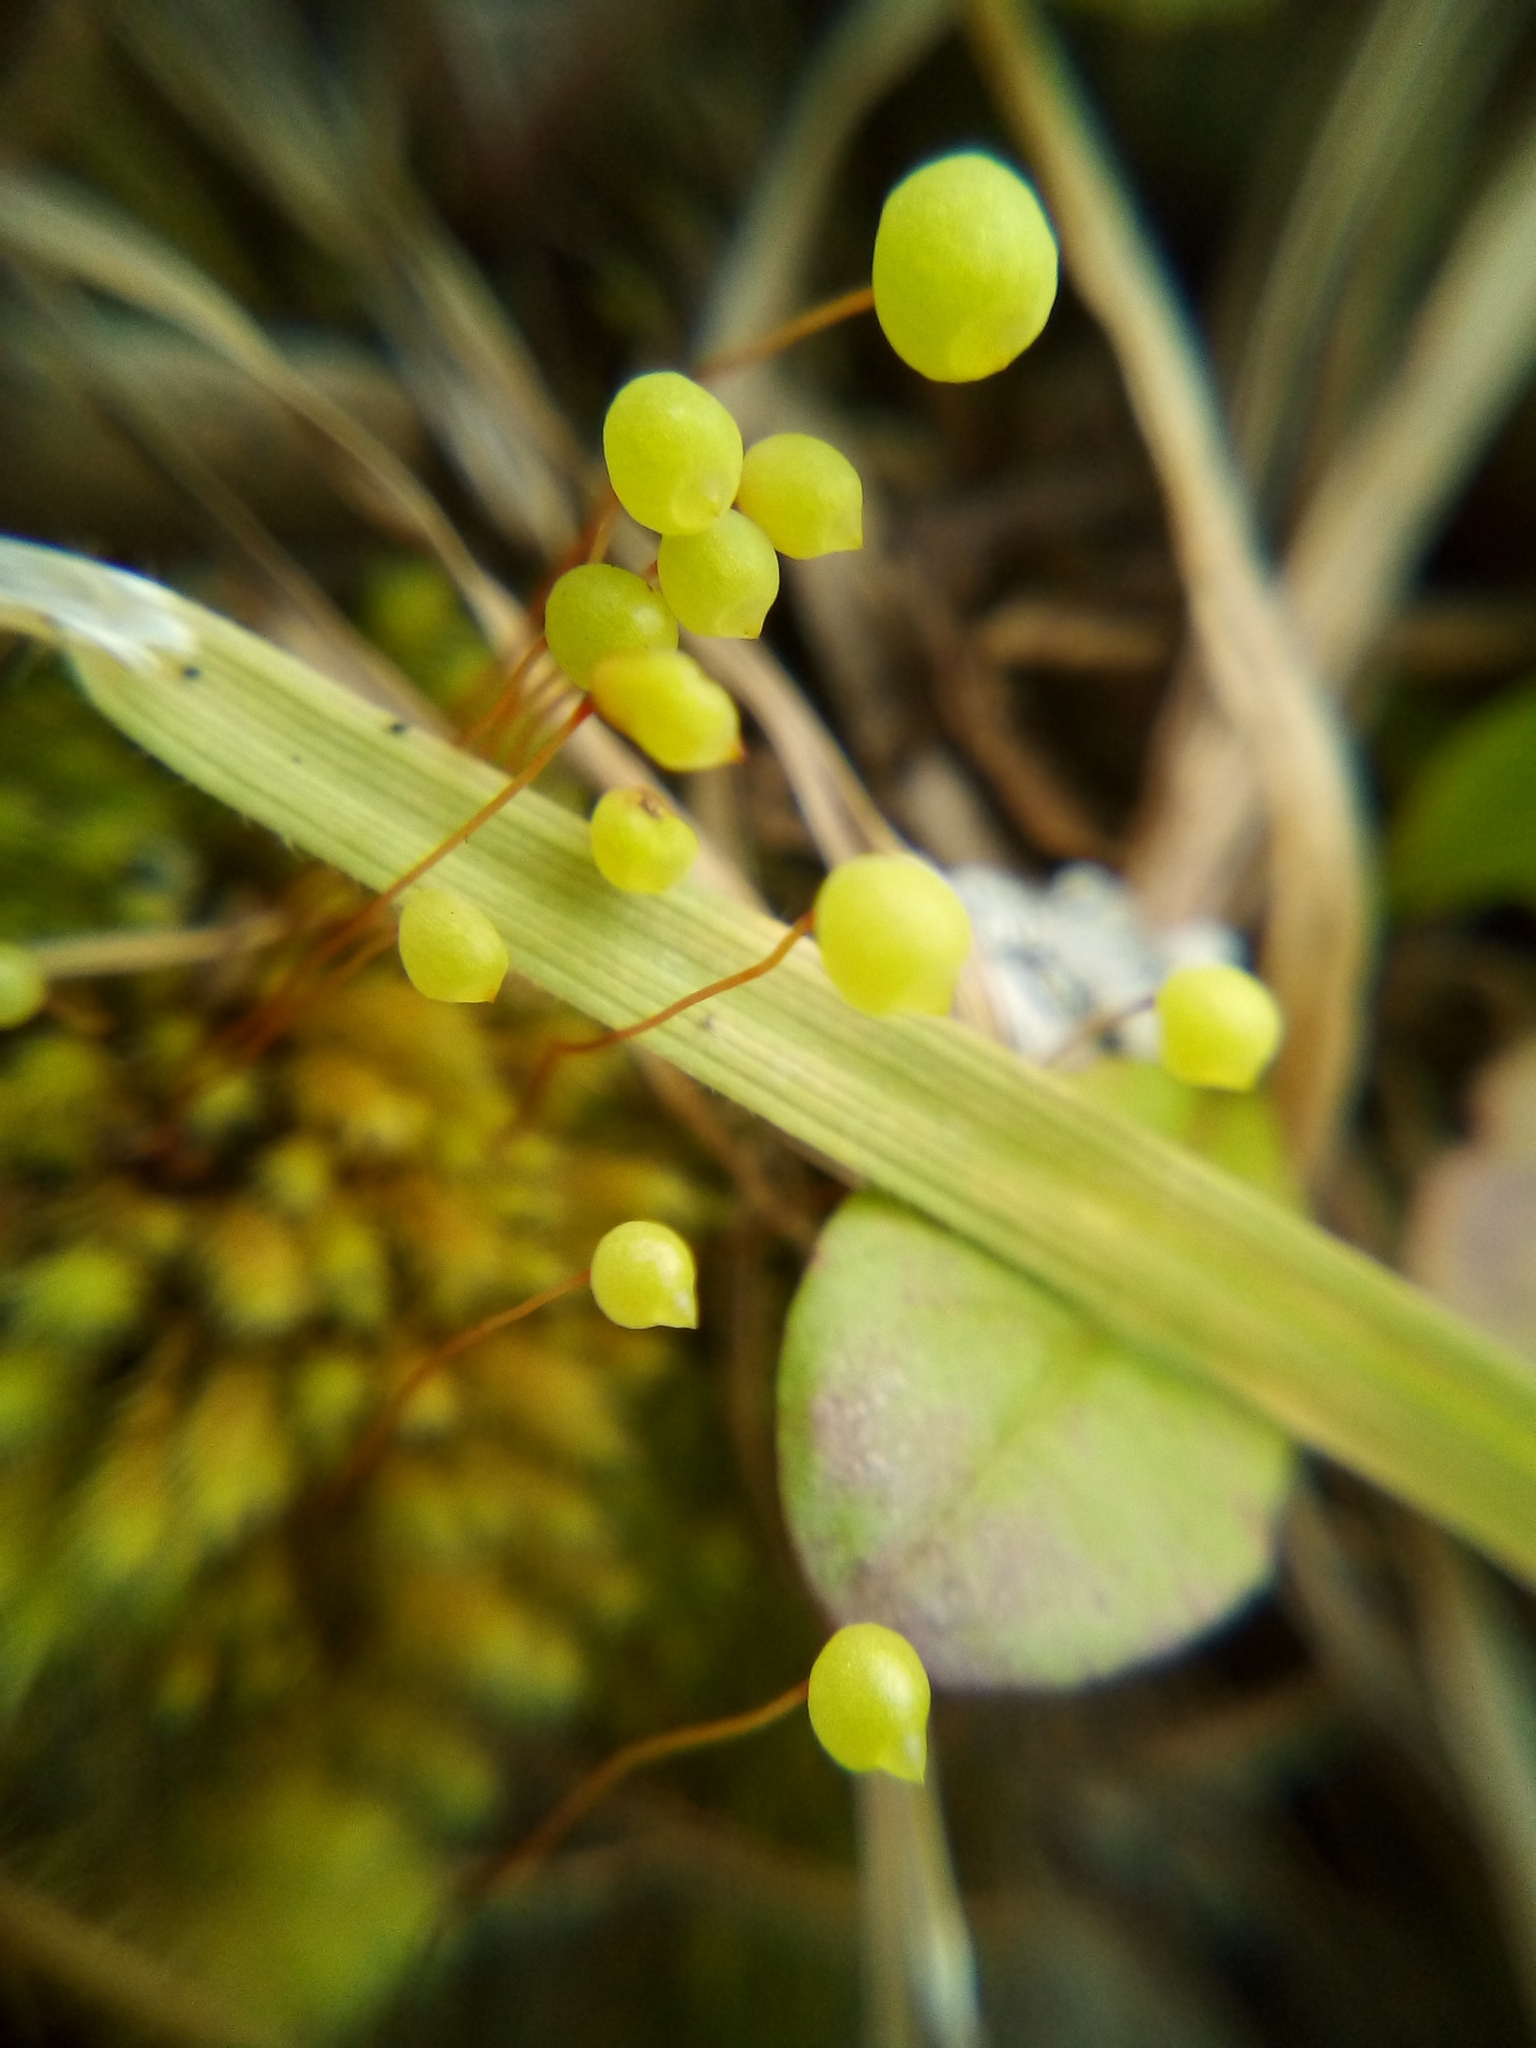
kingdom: Plantae
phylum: Bryophyta
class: Bryopsida
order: Bartramiales
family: Bartramiaceae
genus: Philonotis
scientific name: Philonotis tenuis
